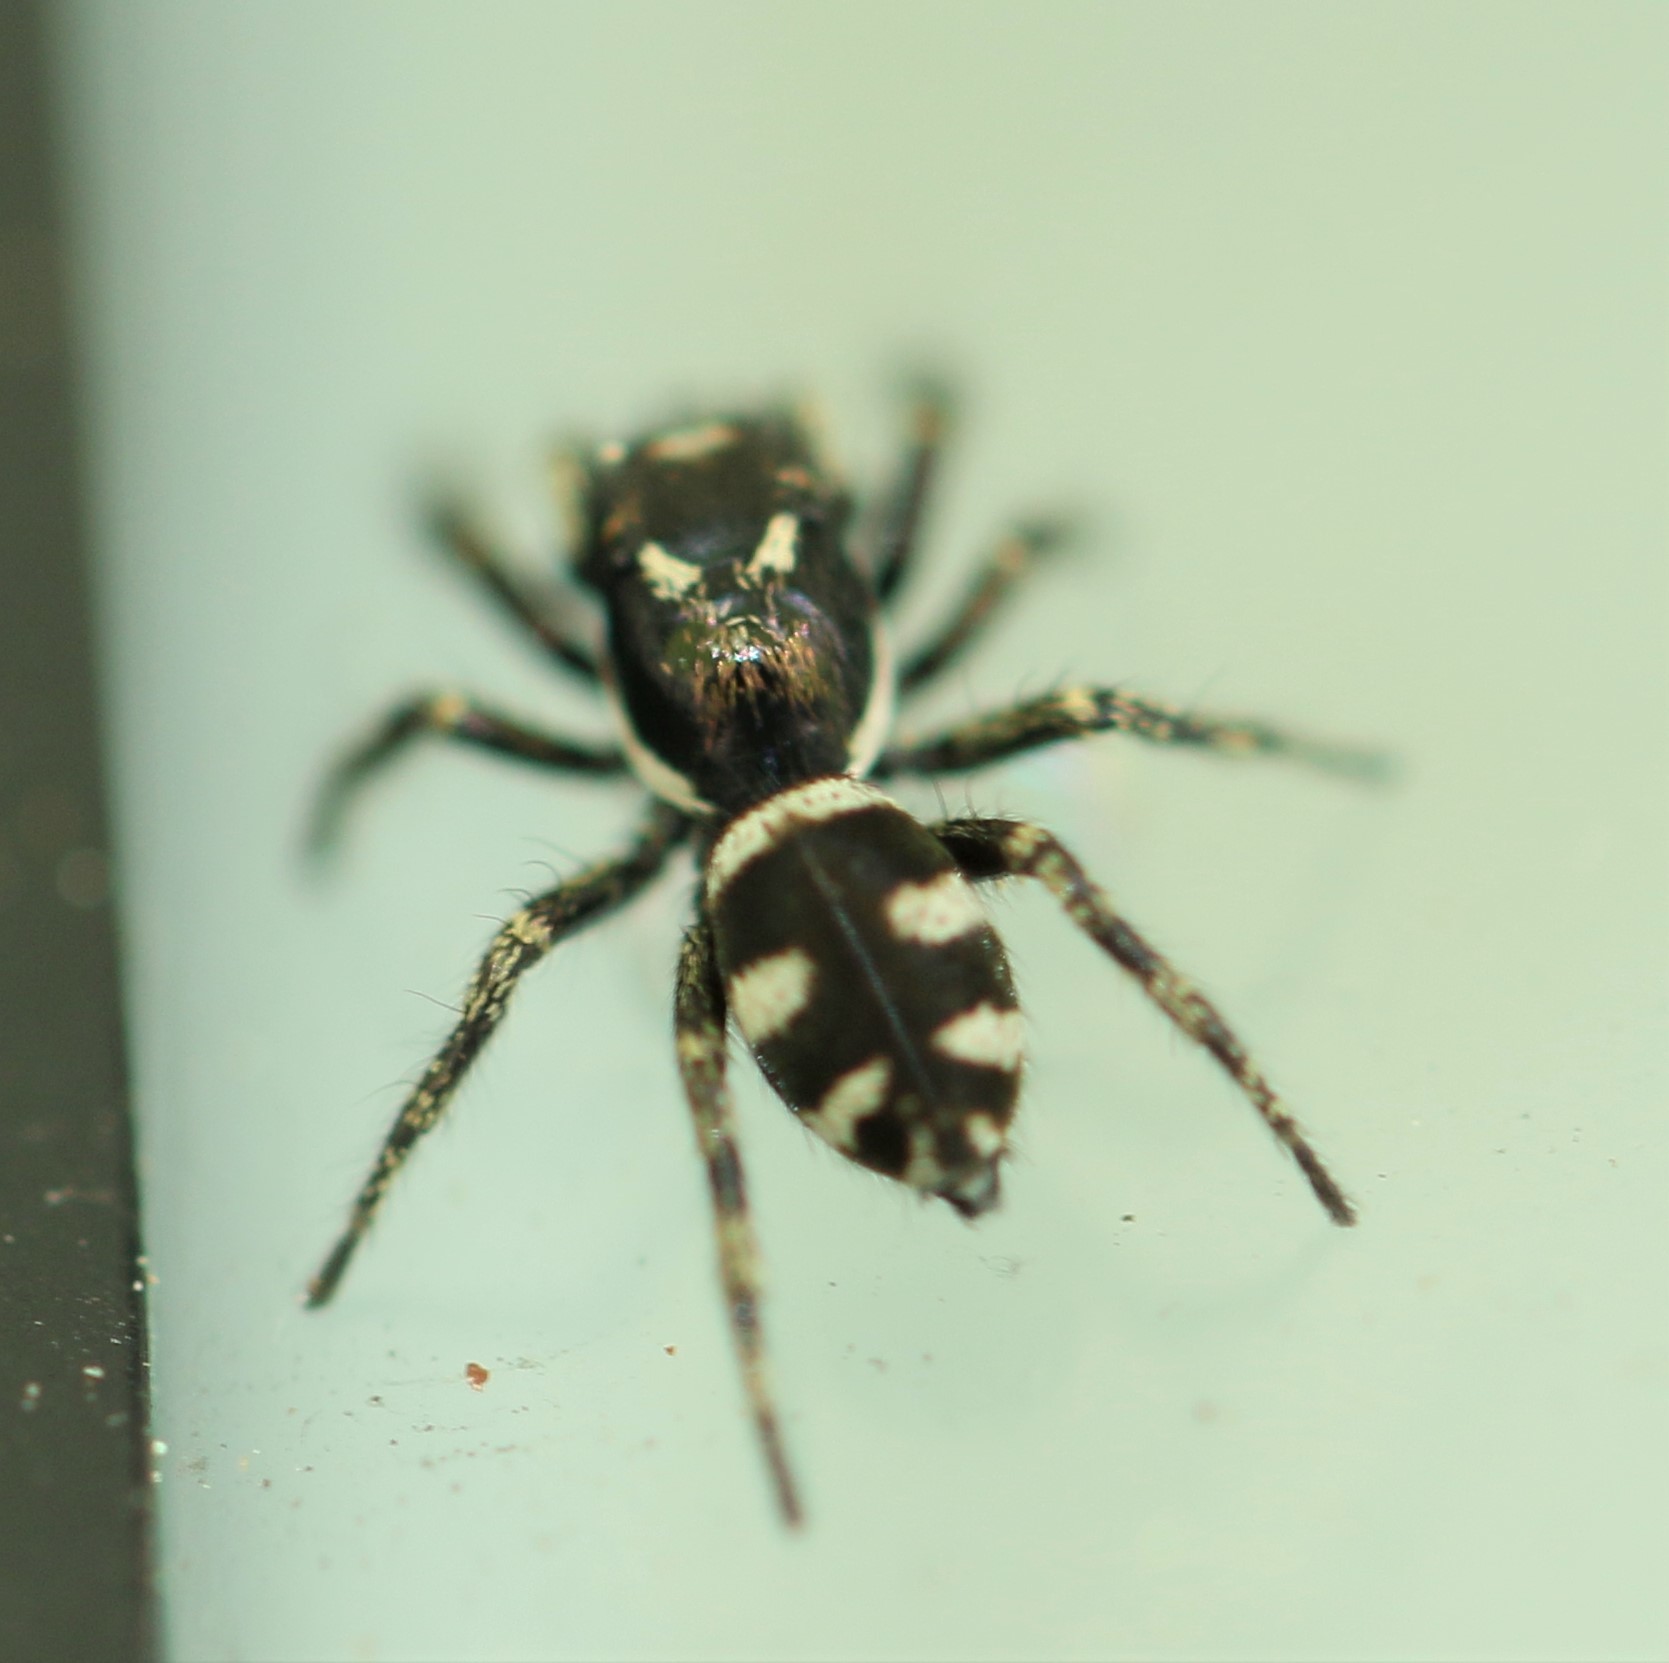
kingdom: Animalia
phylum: Arthropoda
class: Arachnida
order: Araneae
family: Salticidae
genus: Salticus
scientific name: Salticus scenicus
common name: Zebra jumper
